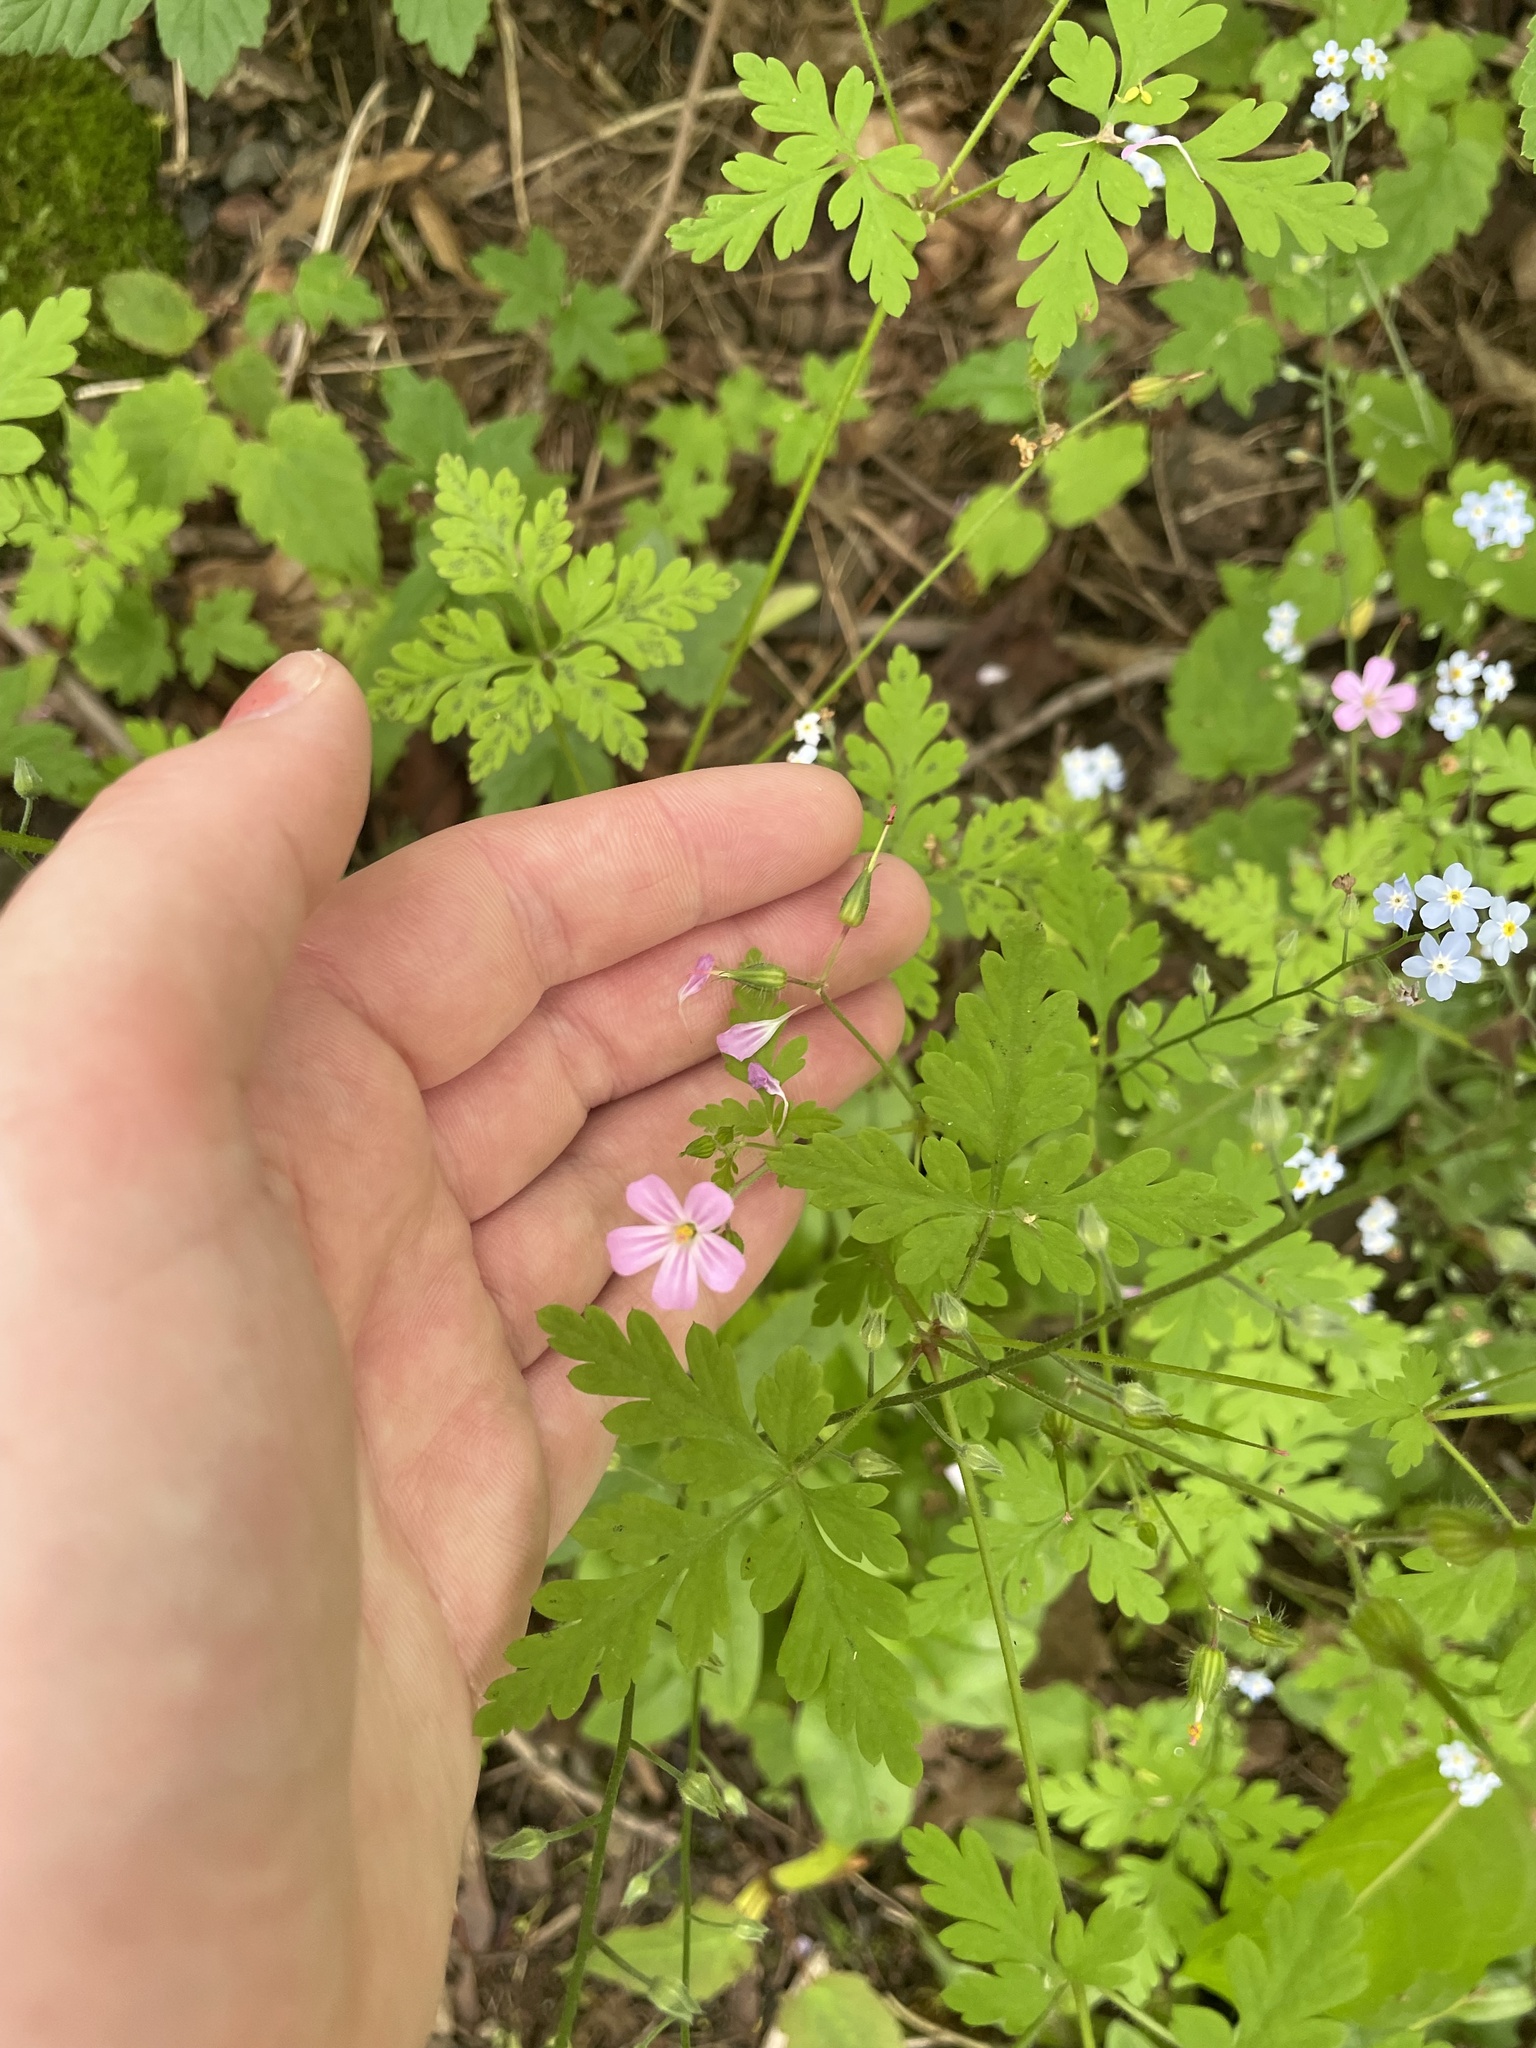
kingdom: Plantae
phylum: Tracheophyta
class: Magnoliopsida
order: Geraniales
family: Geraniaceae
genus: Geranium
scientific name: Geranium robertianum
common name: Herb-robert
